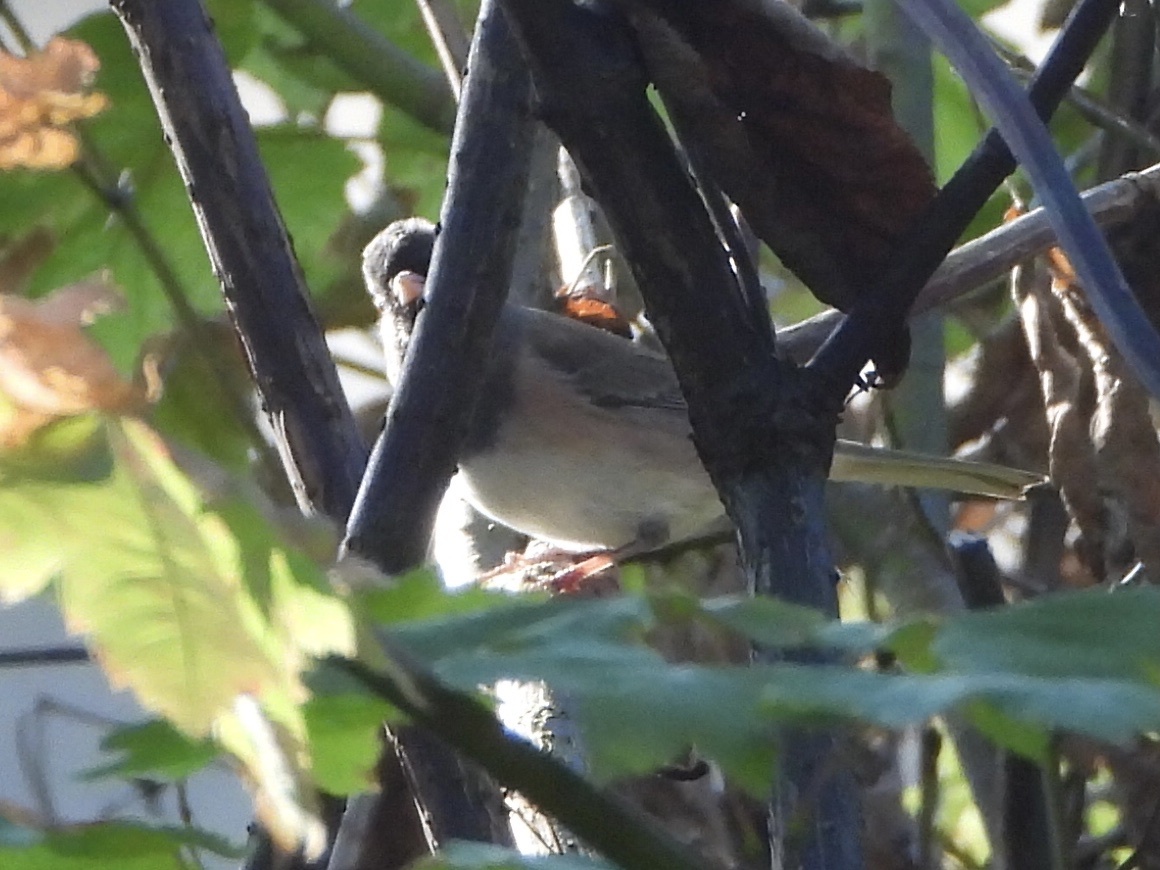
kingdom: Animalia
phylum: Chordata
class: Aves
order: Passeriformes
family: Passerellidae
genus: Junco
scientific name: Junco hyemalis
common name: Dark-eyed junco
